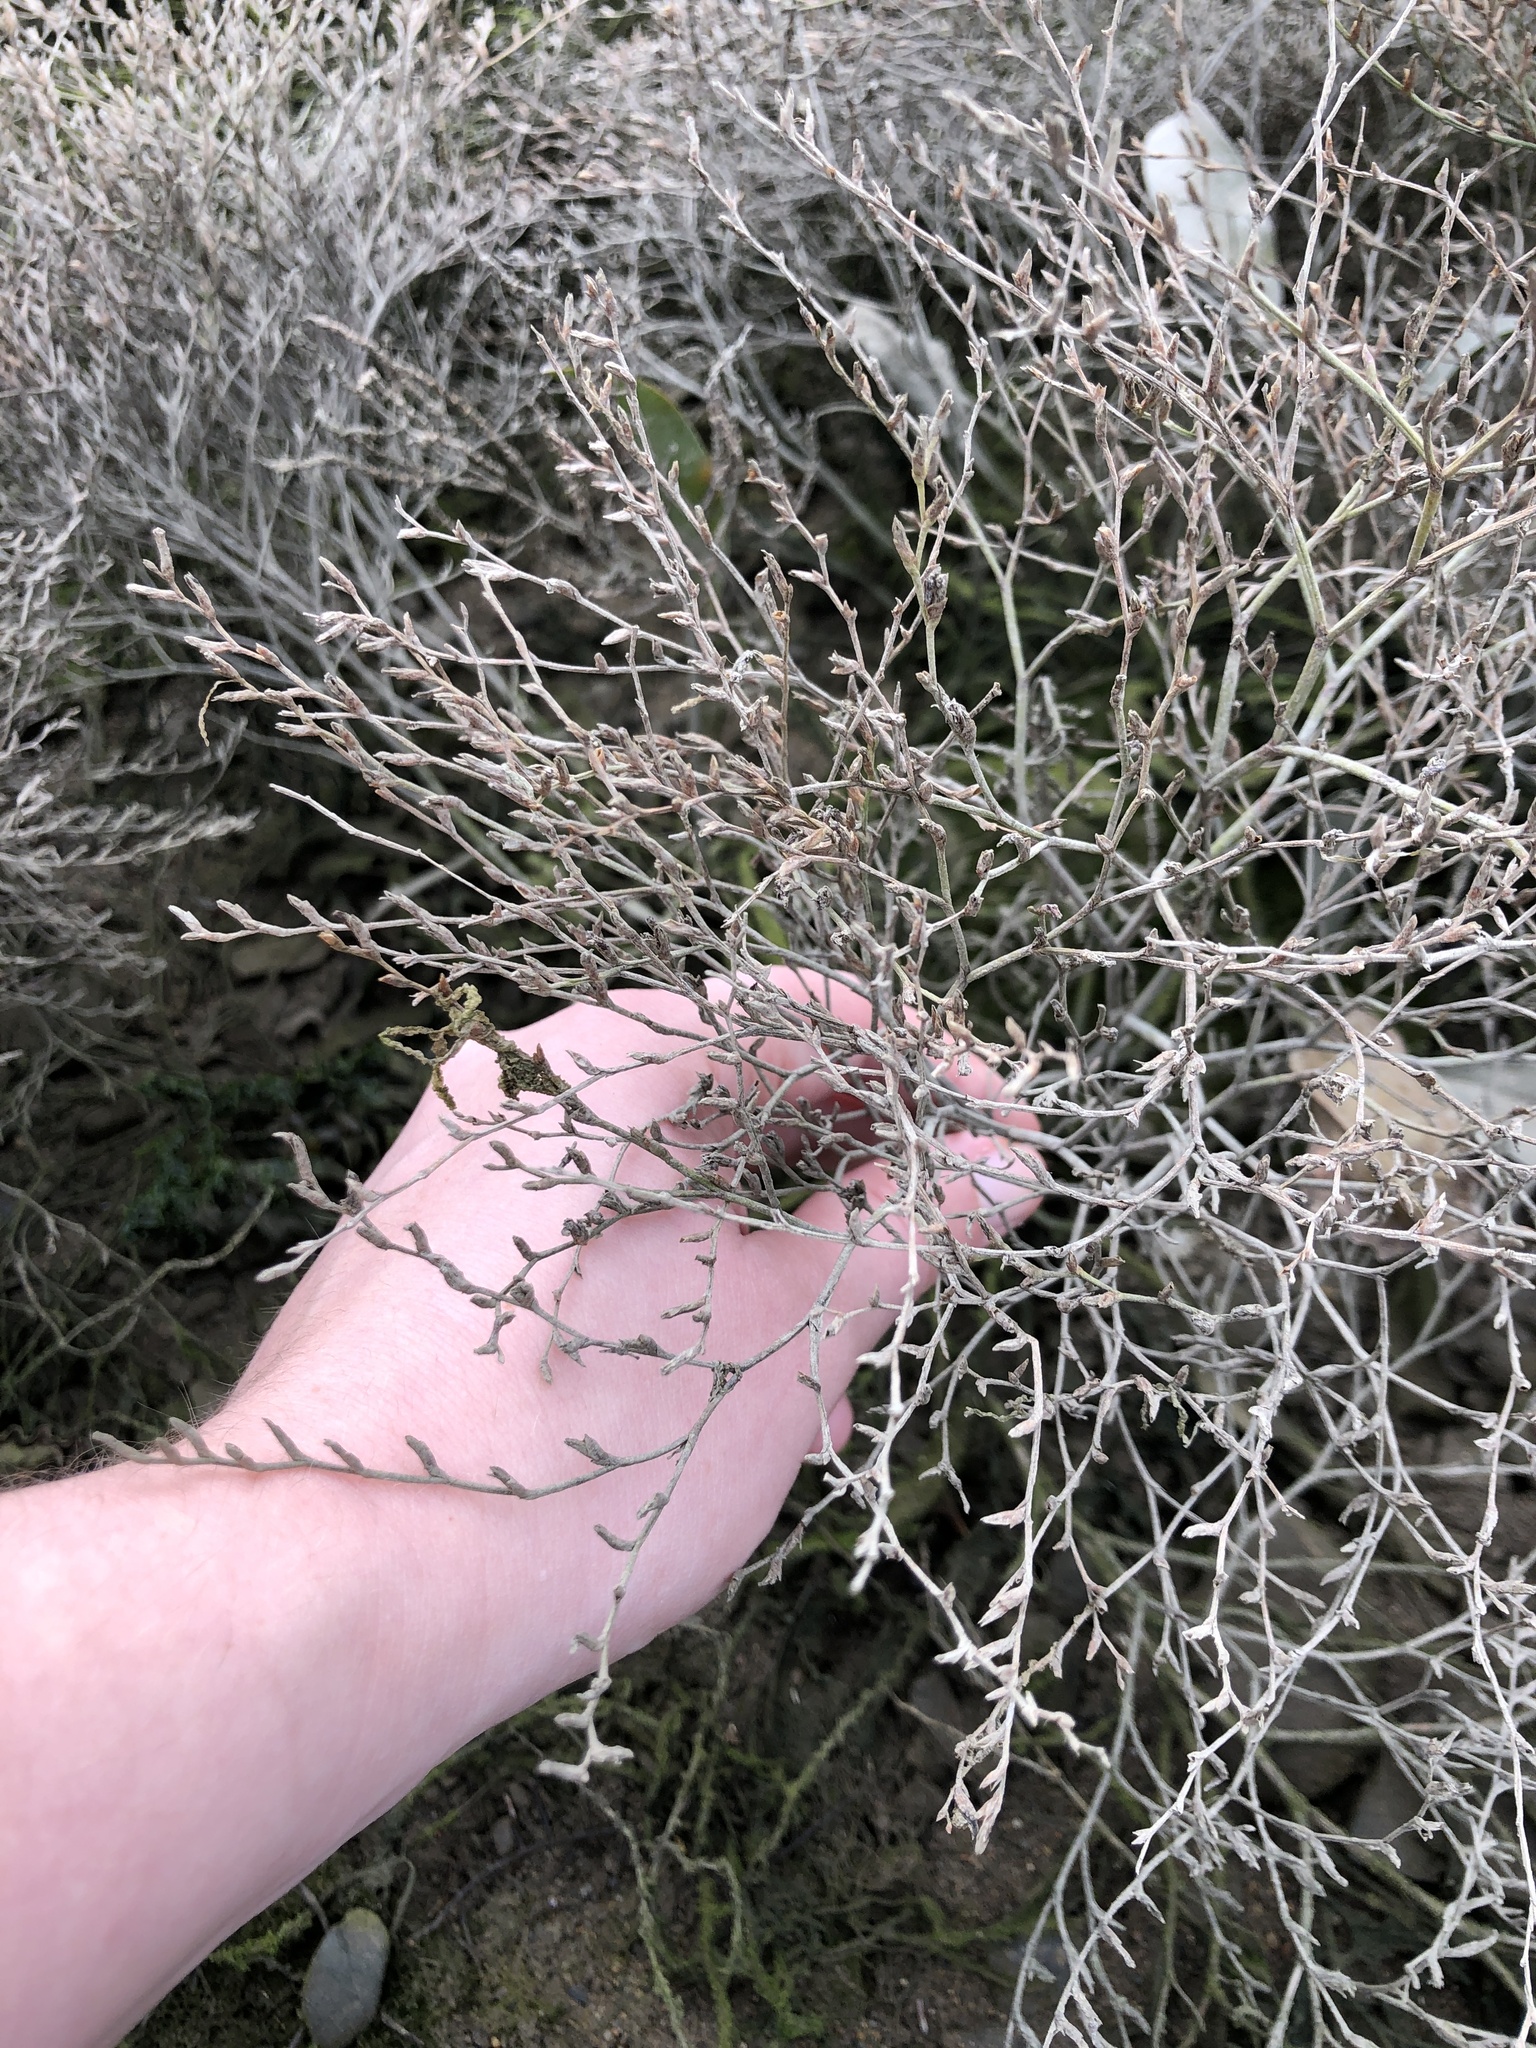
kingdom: Plantae
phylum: Tracheophyta
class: Magnoliopsida
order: Caryophyllales
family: Plumbaginaceae
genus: Limonium
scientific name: Limonium carolinianum
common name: Carolina sea lavender
